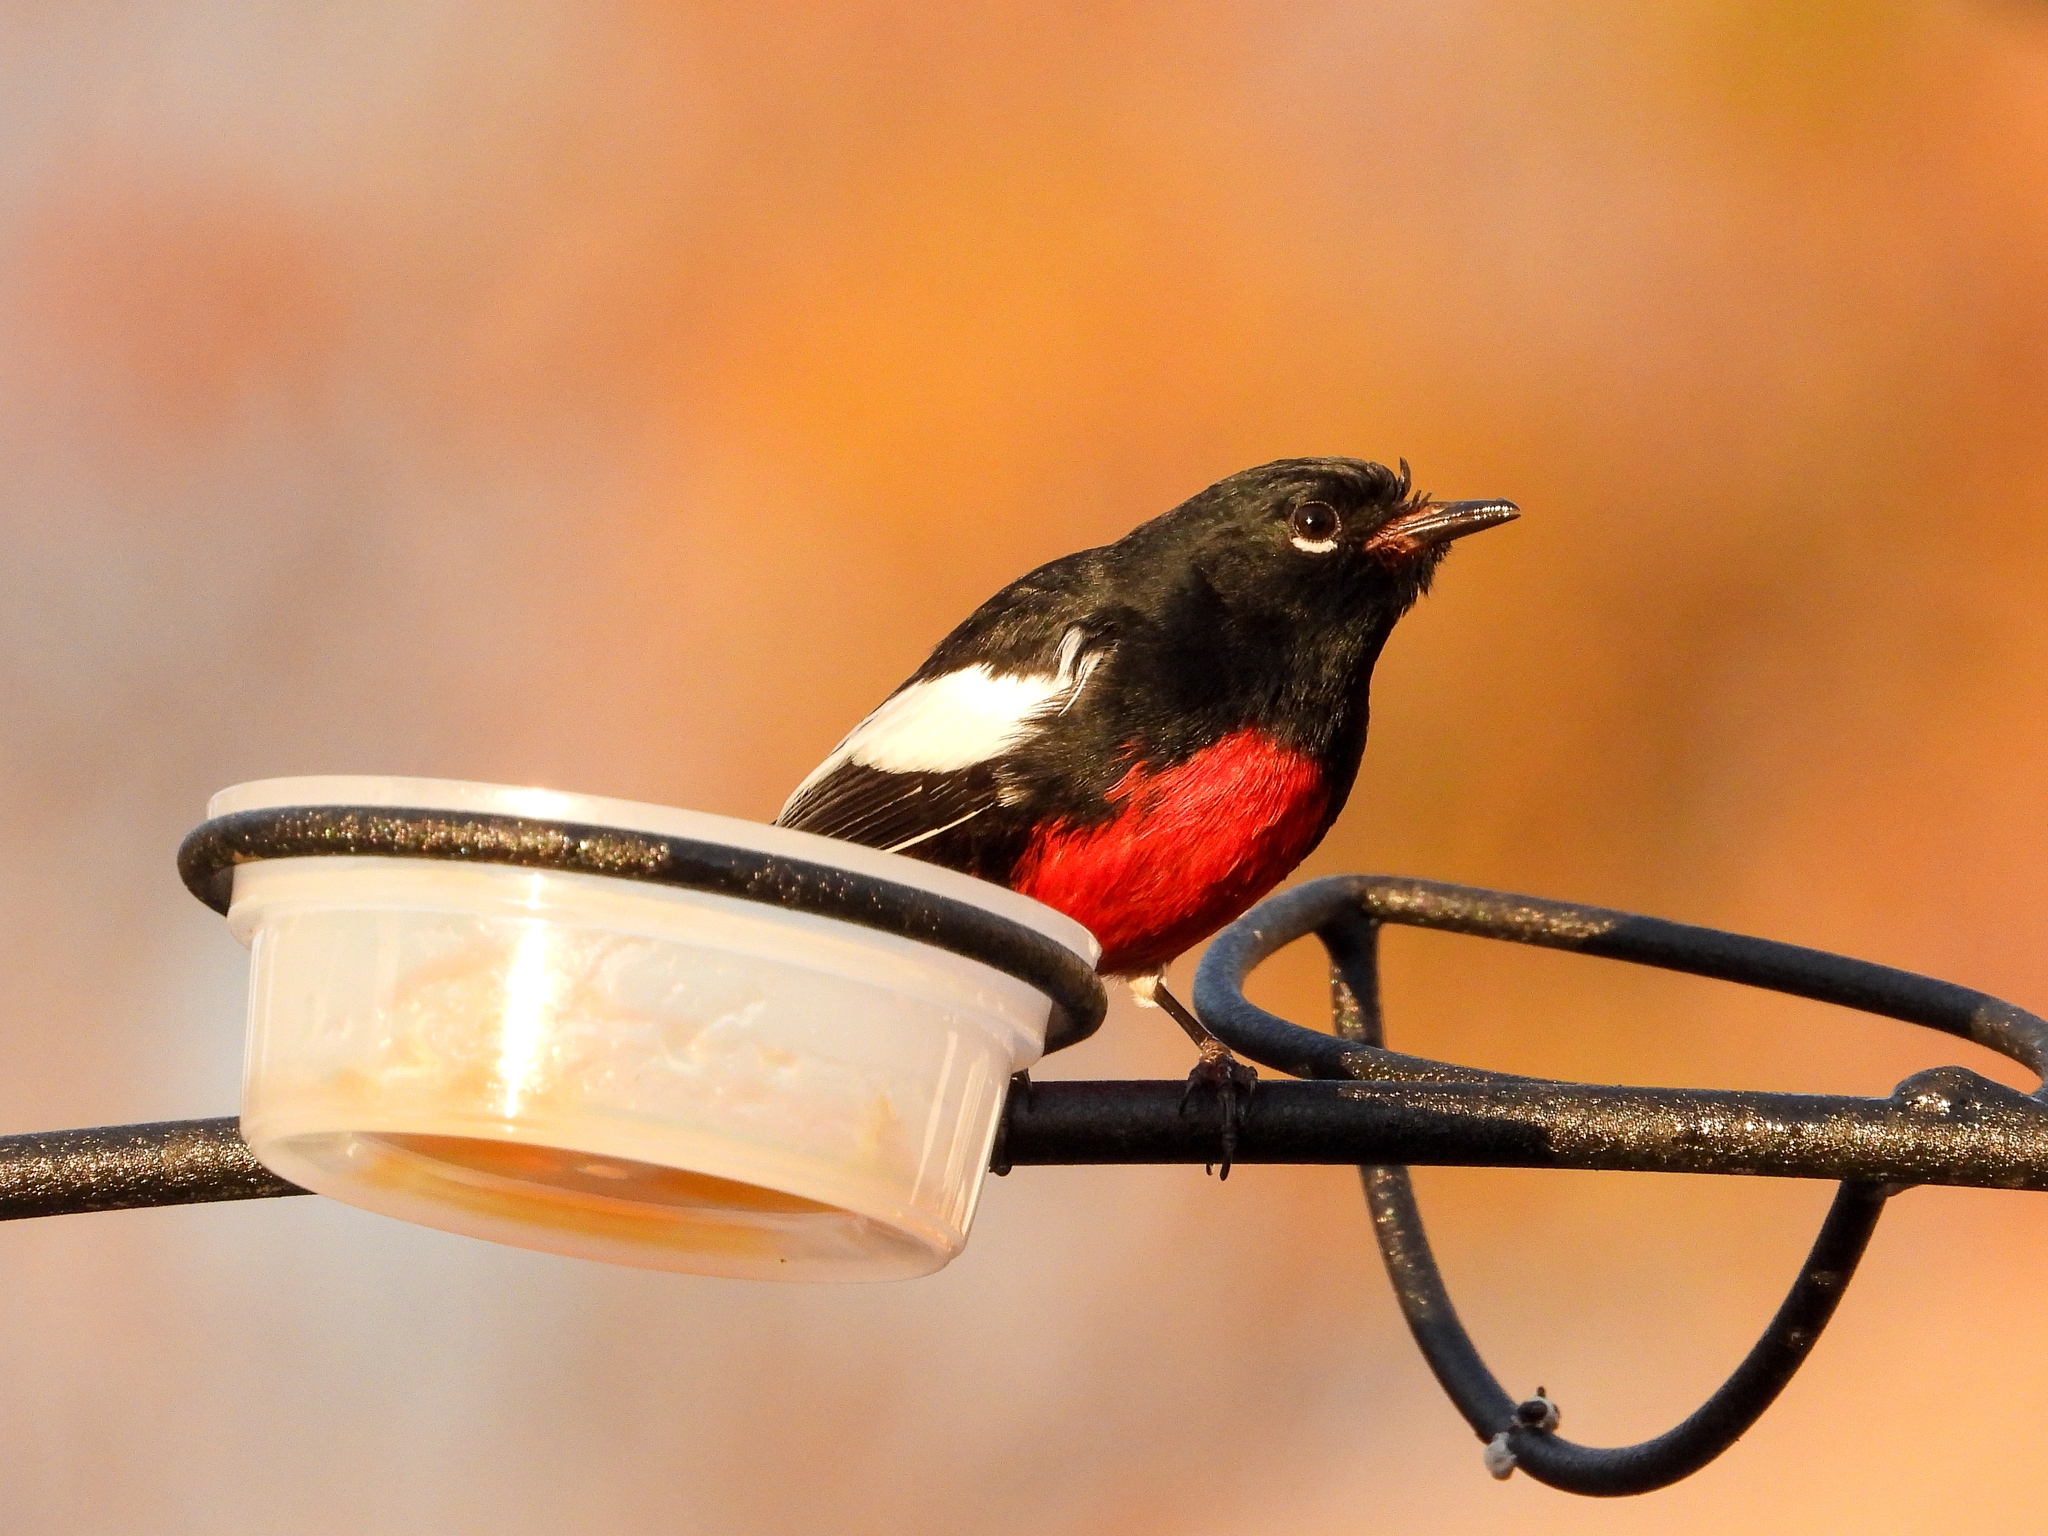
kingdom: Animalia
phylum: Chordata
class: Aves
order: Passeriformes
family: Parulidae
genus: Myioborus
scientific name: Myioborus pictus
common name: Painted whitestart
